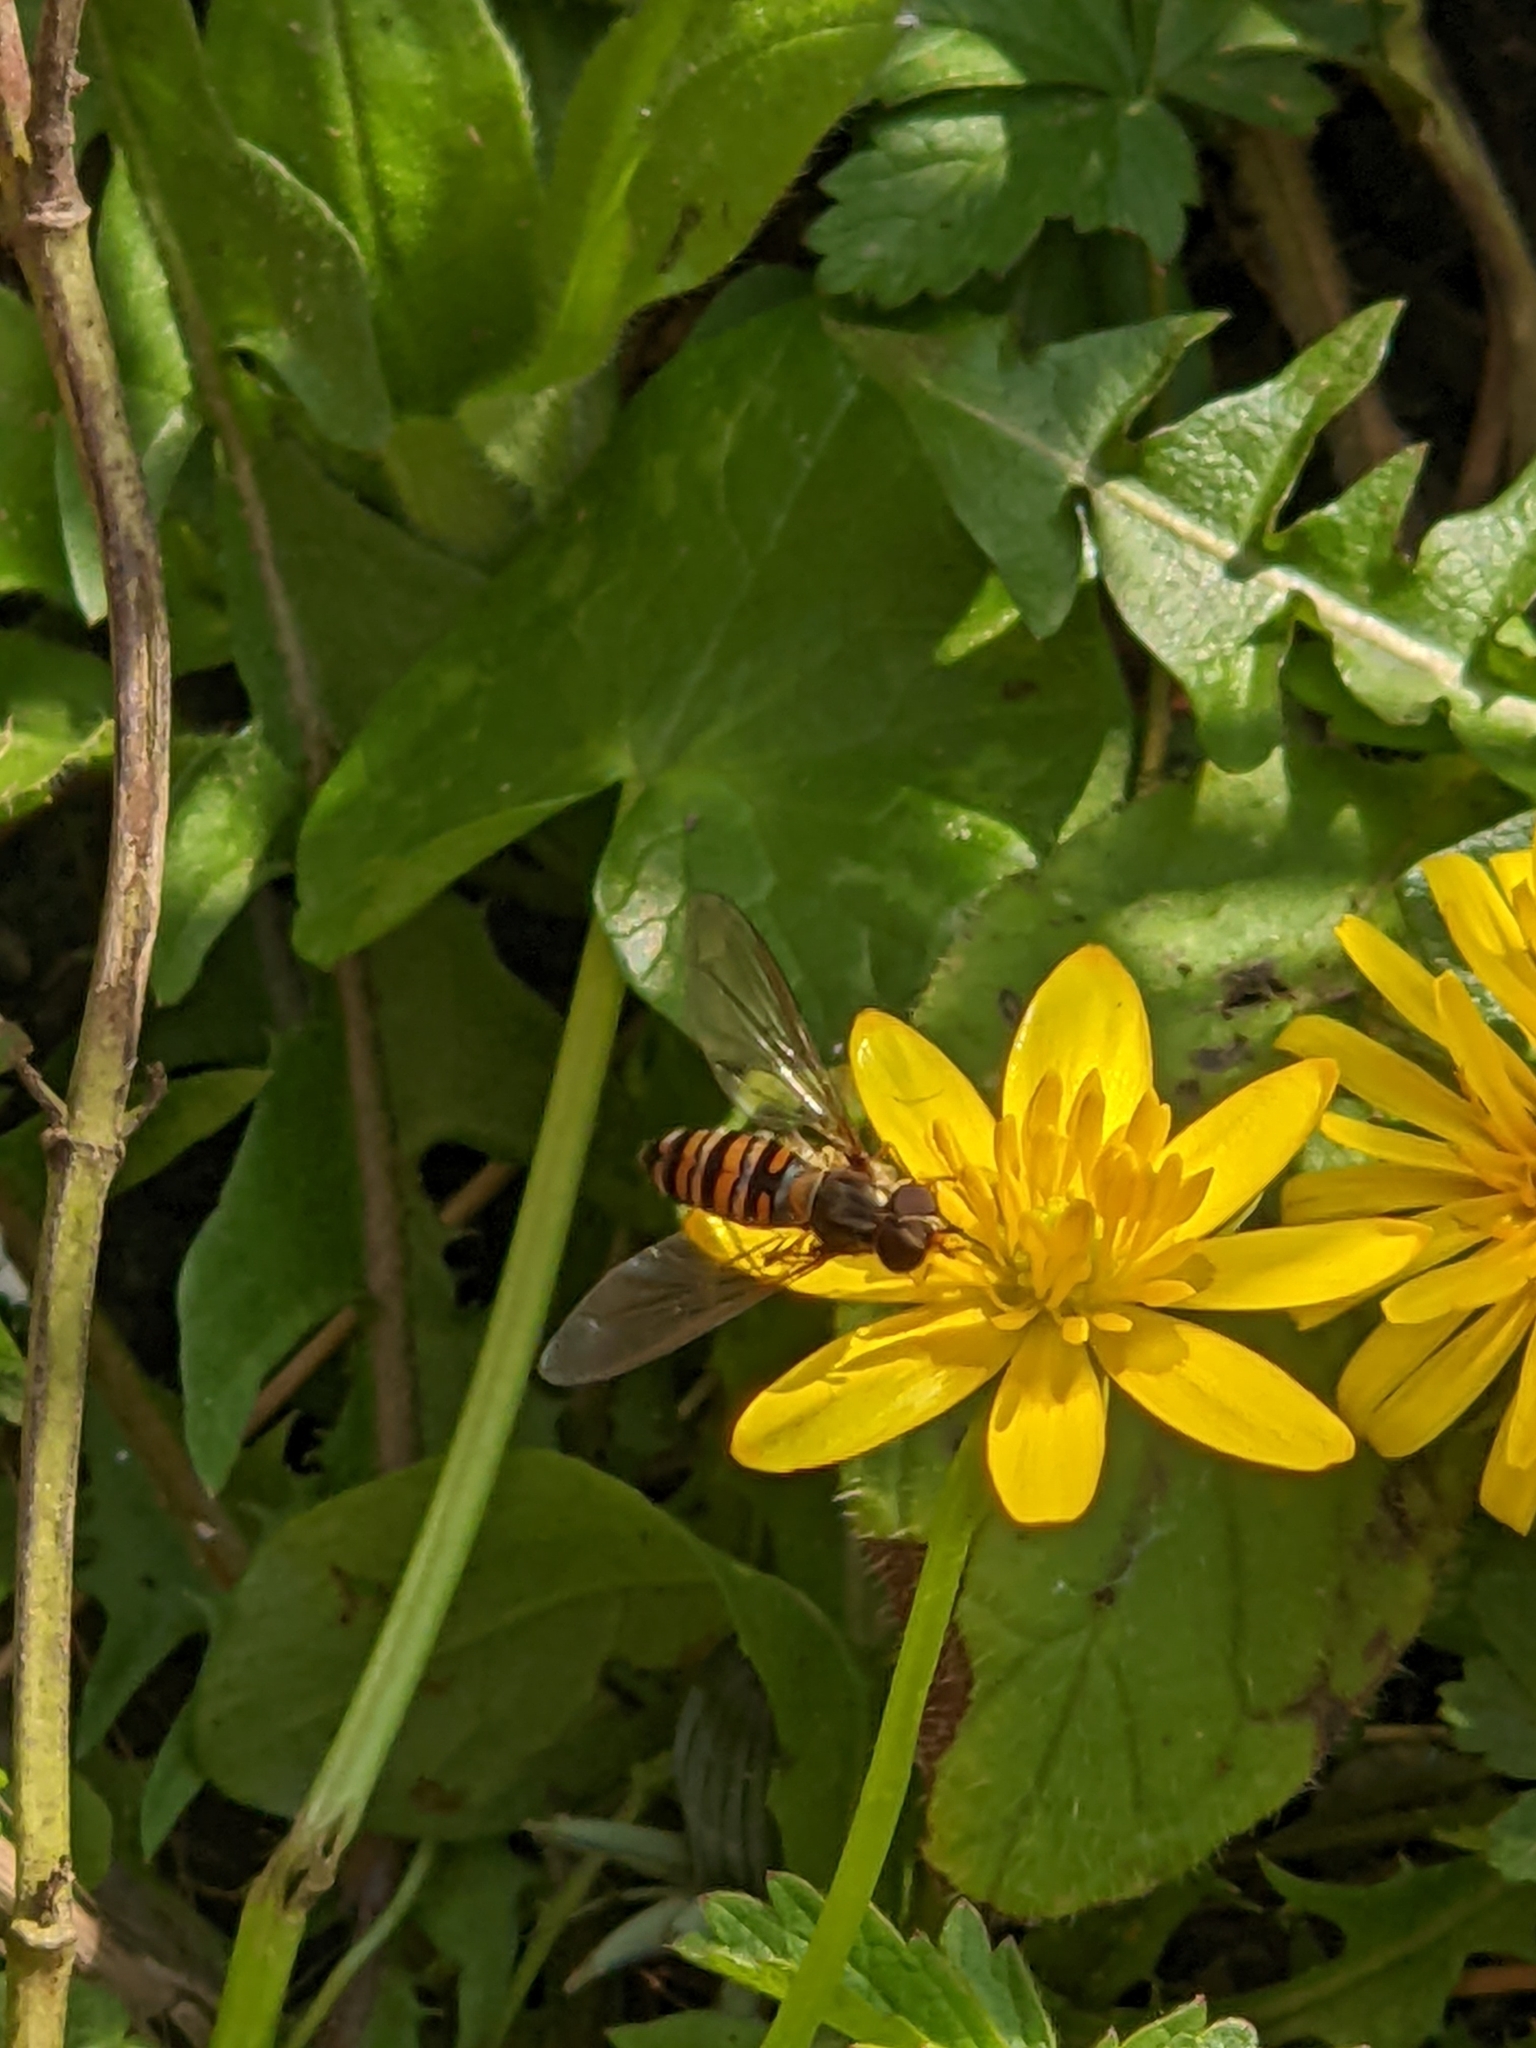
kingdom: Animalia
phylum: Arthropoda
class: Insecta
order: Diptera
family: Syrphidae
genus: Episyrphus
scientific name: Episyrphus balteatus
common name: Marmalade hoverfly
